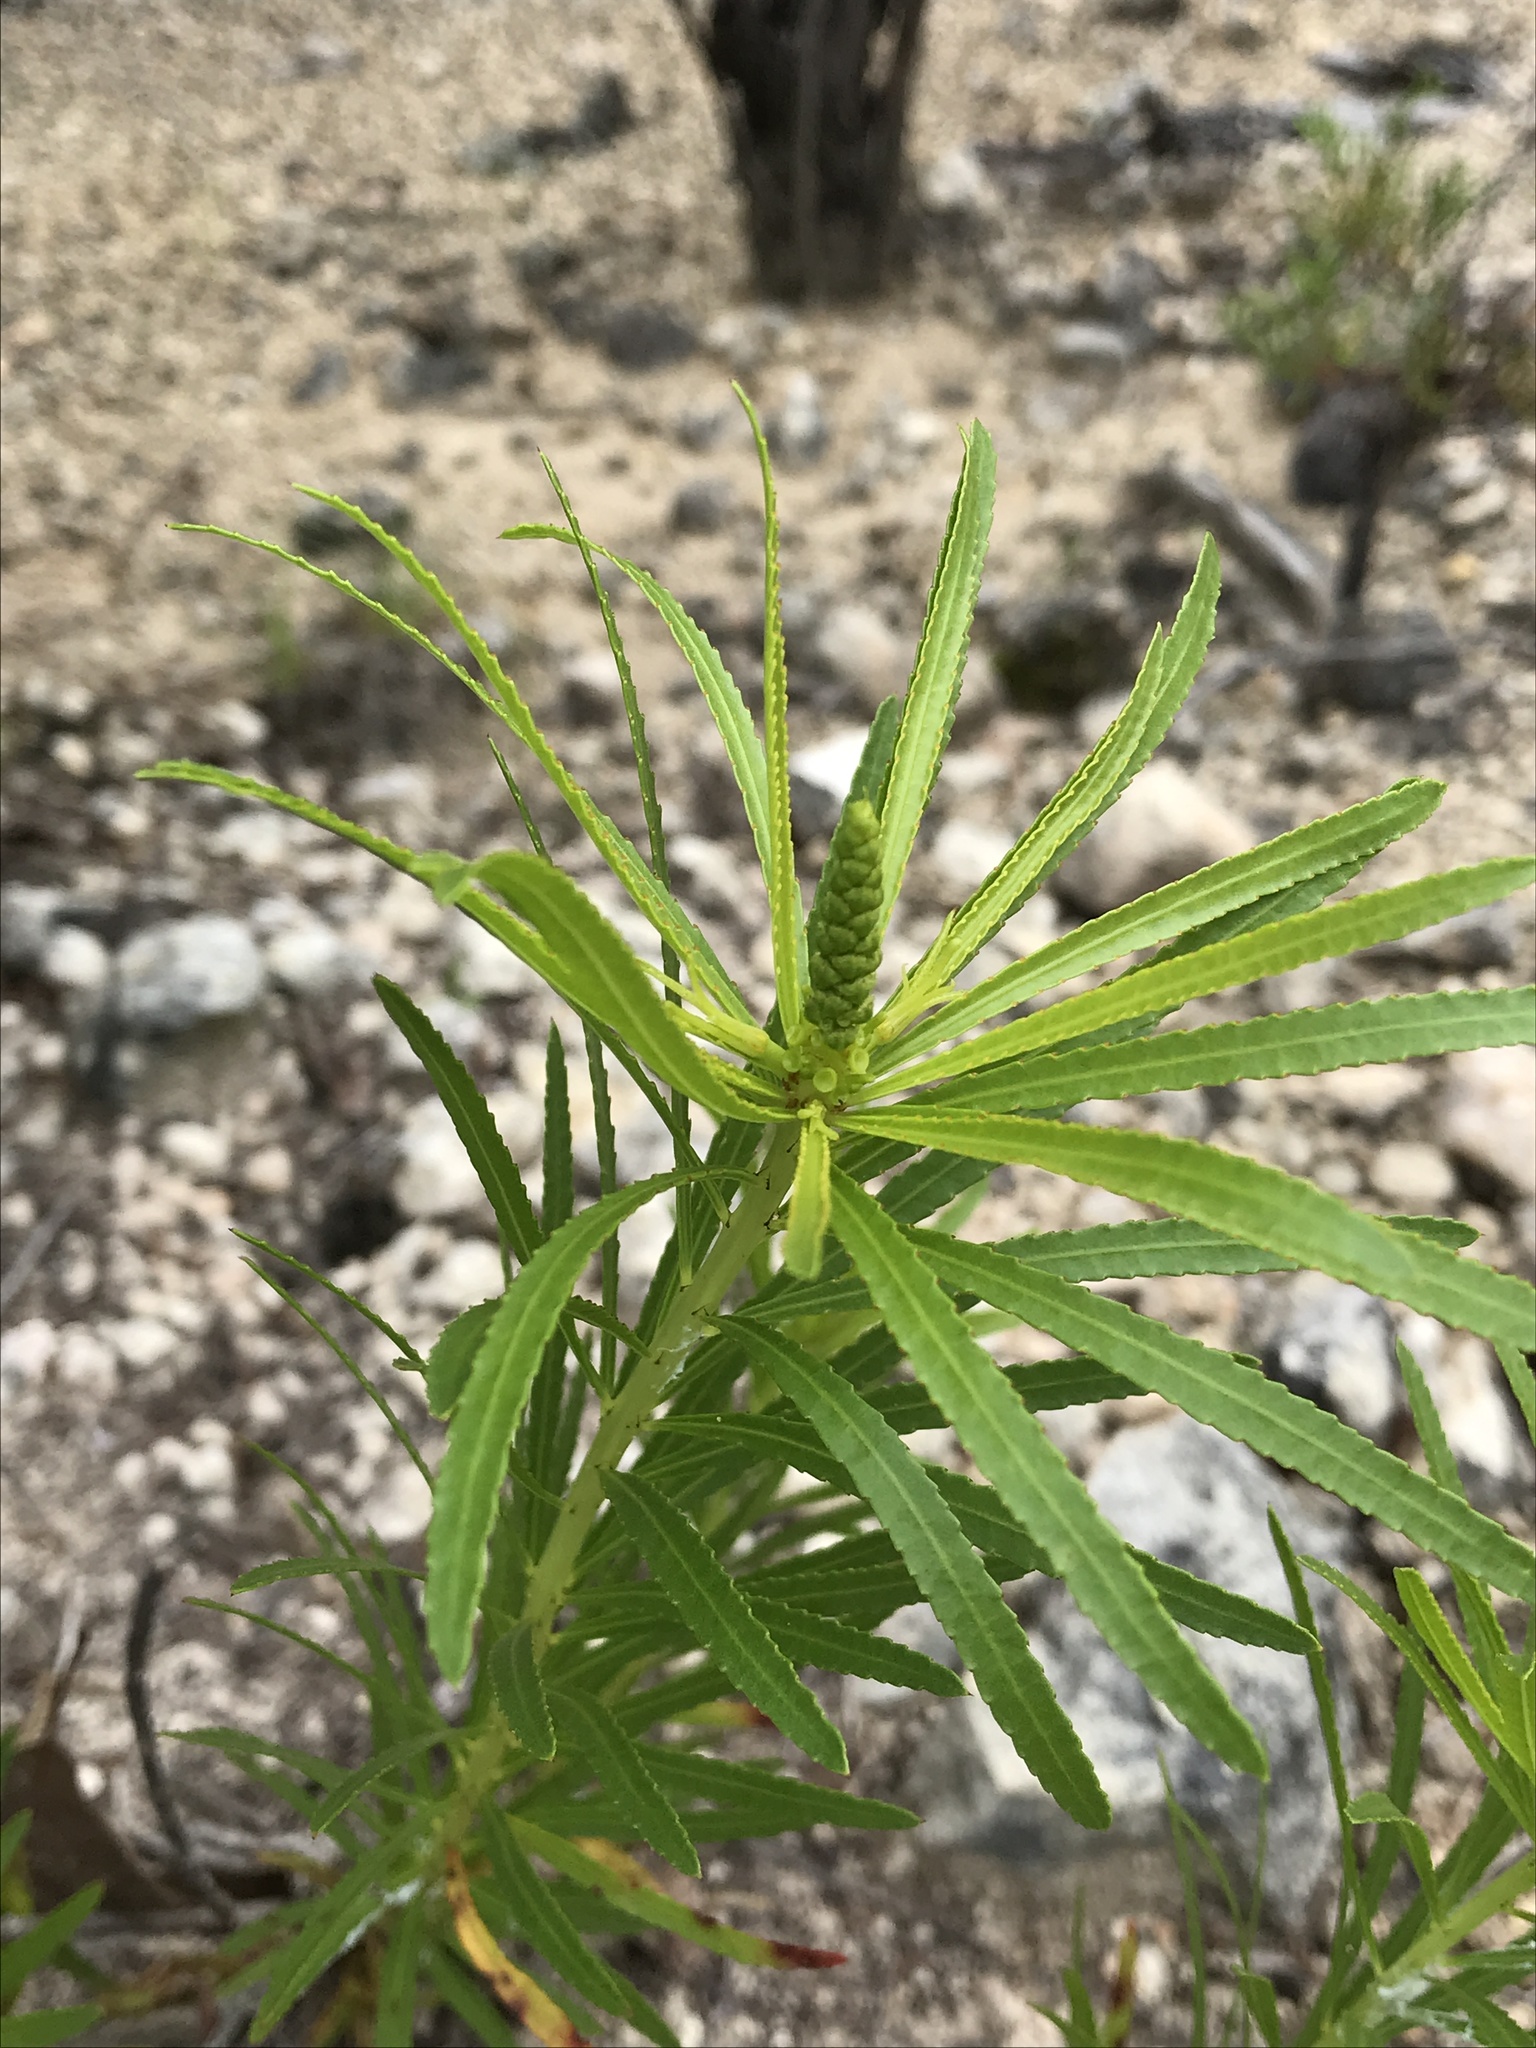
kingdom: Plantae
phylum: Tracheophyta
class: Magnoliopsida
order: Malpighiales
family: Euphorbiaceae
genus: Stillingia
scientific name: Stillingia texana
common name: Texas stillingia
